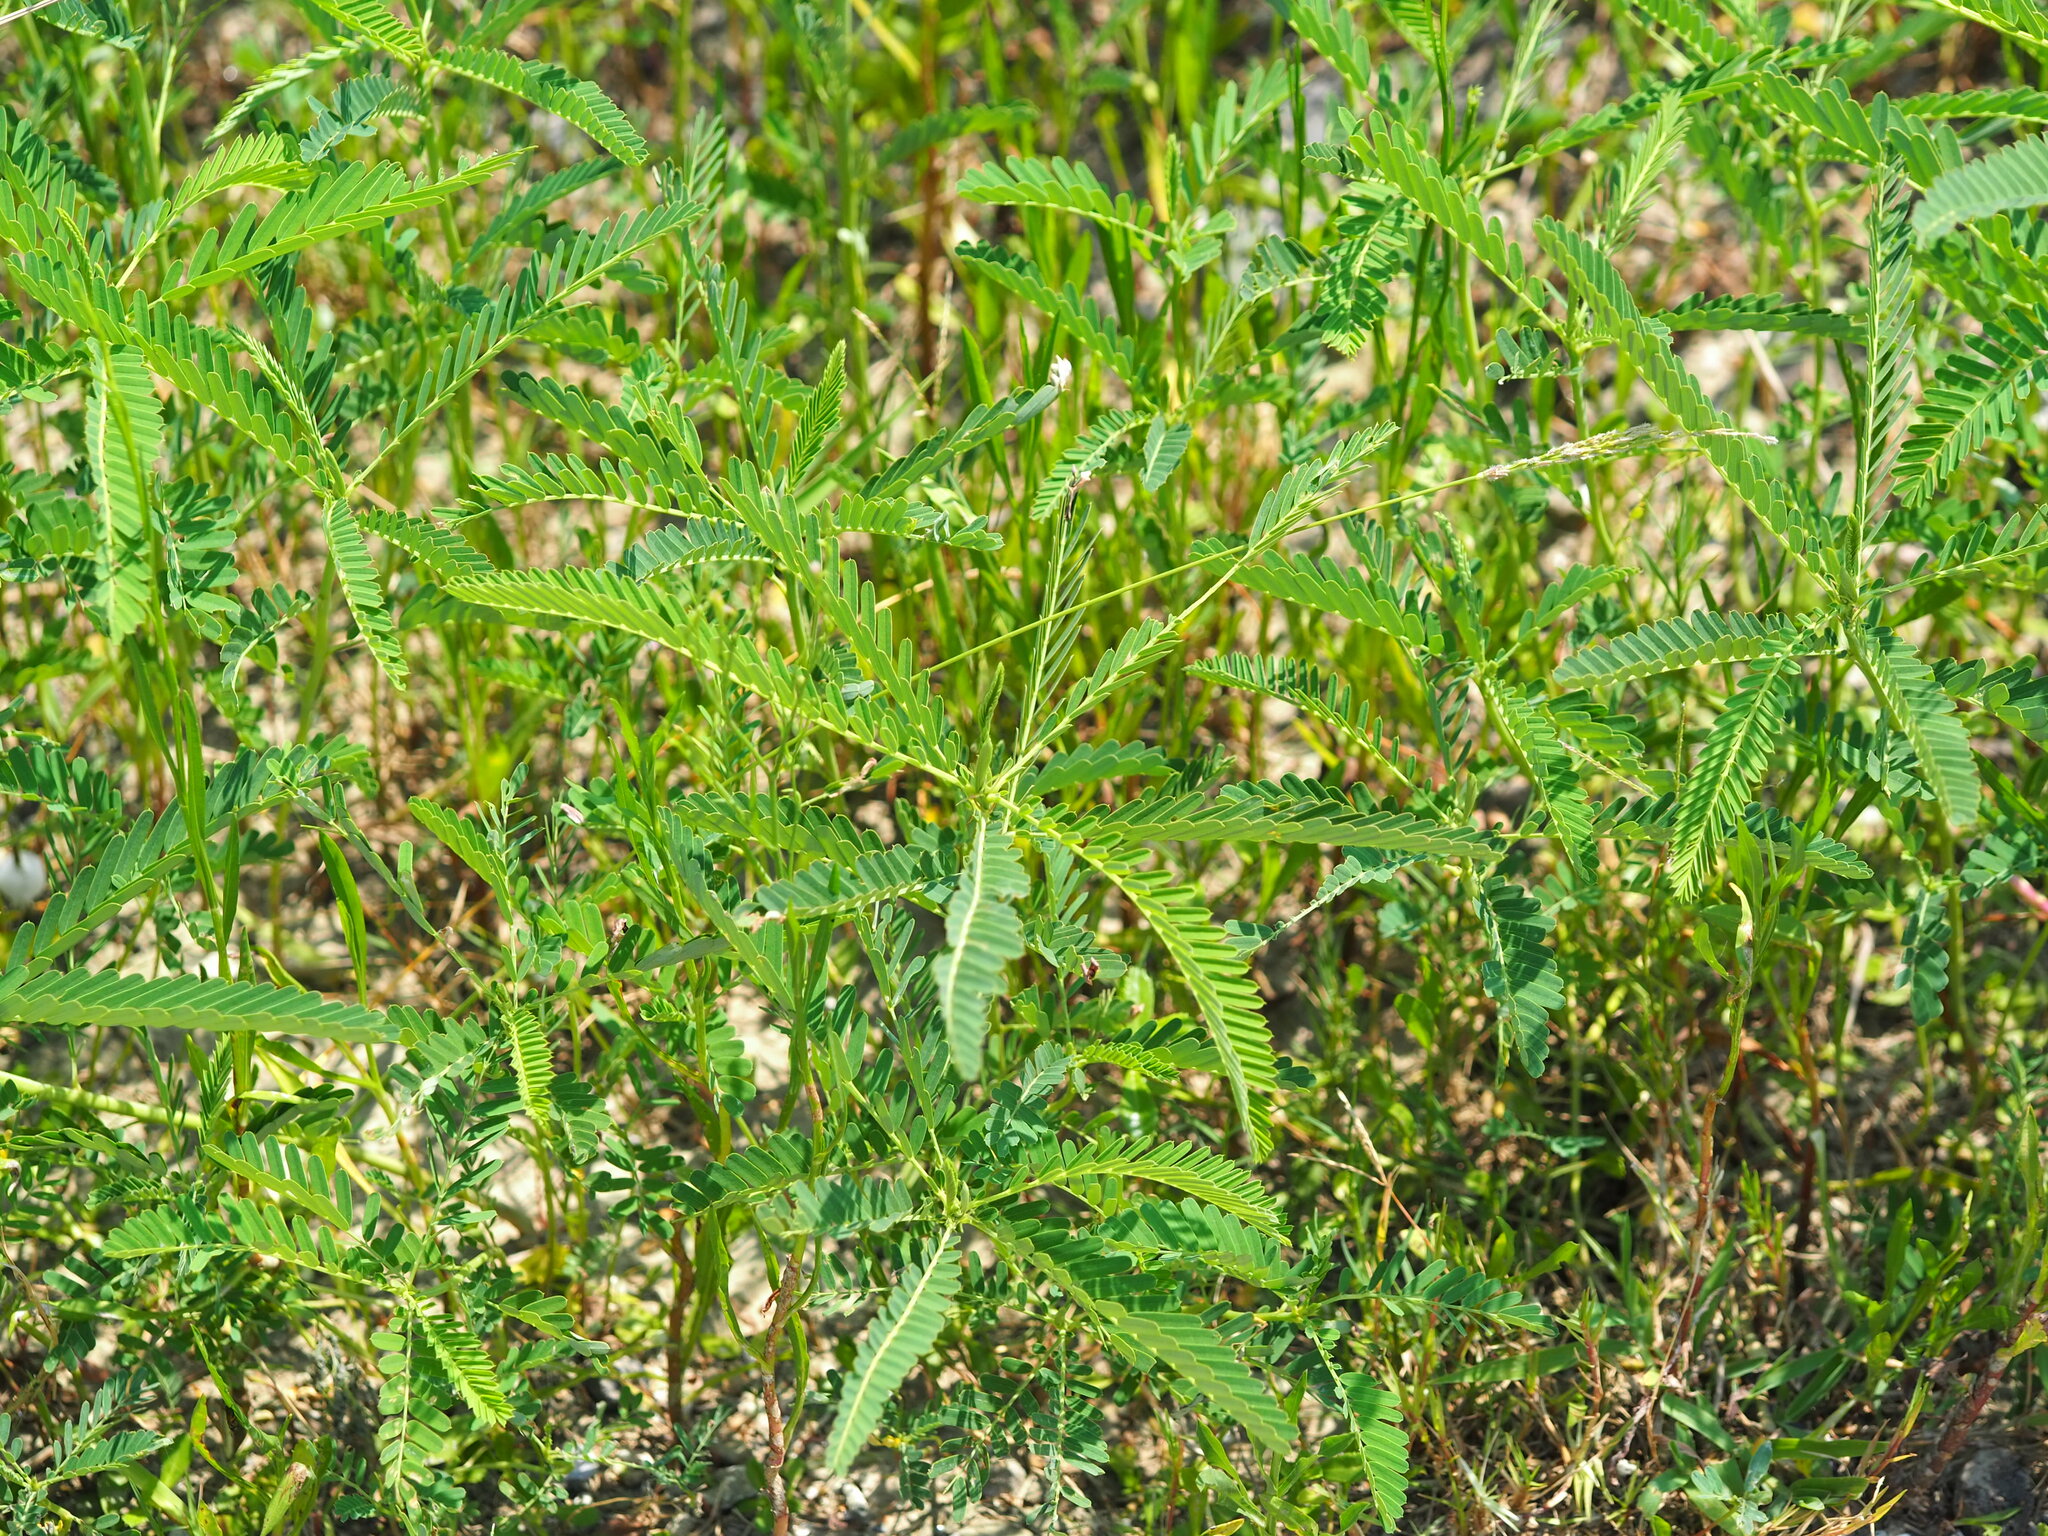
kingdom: Plantae
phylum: Tracheophyta
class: Magnoliopsida
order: Fabales
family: Fabaceae
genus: Sesbania
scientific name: Sesbania cannabina
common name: Canicha
